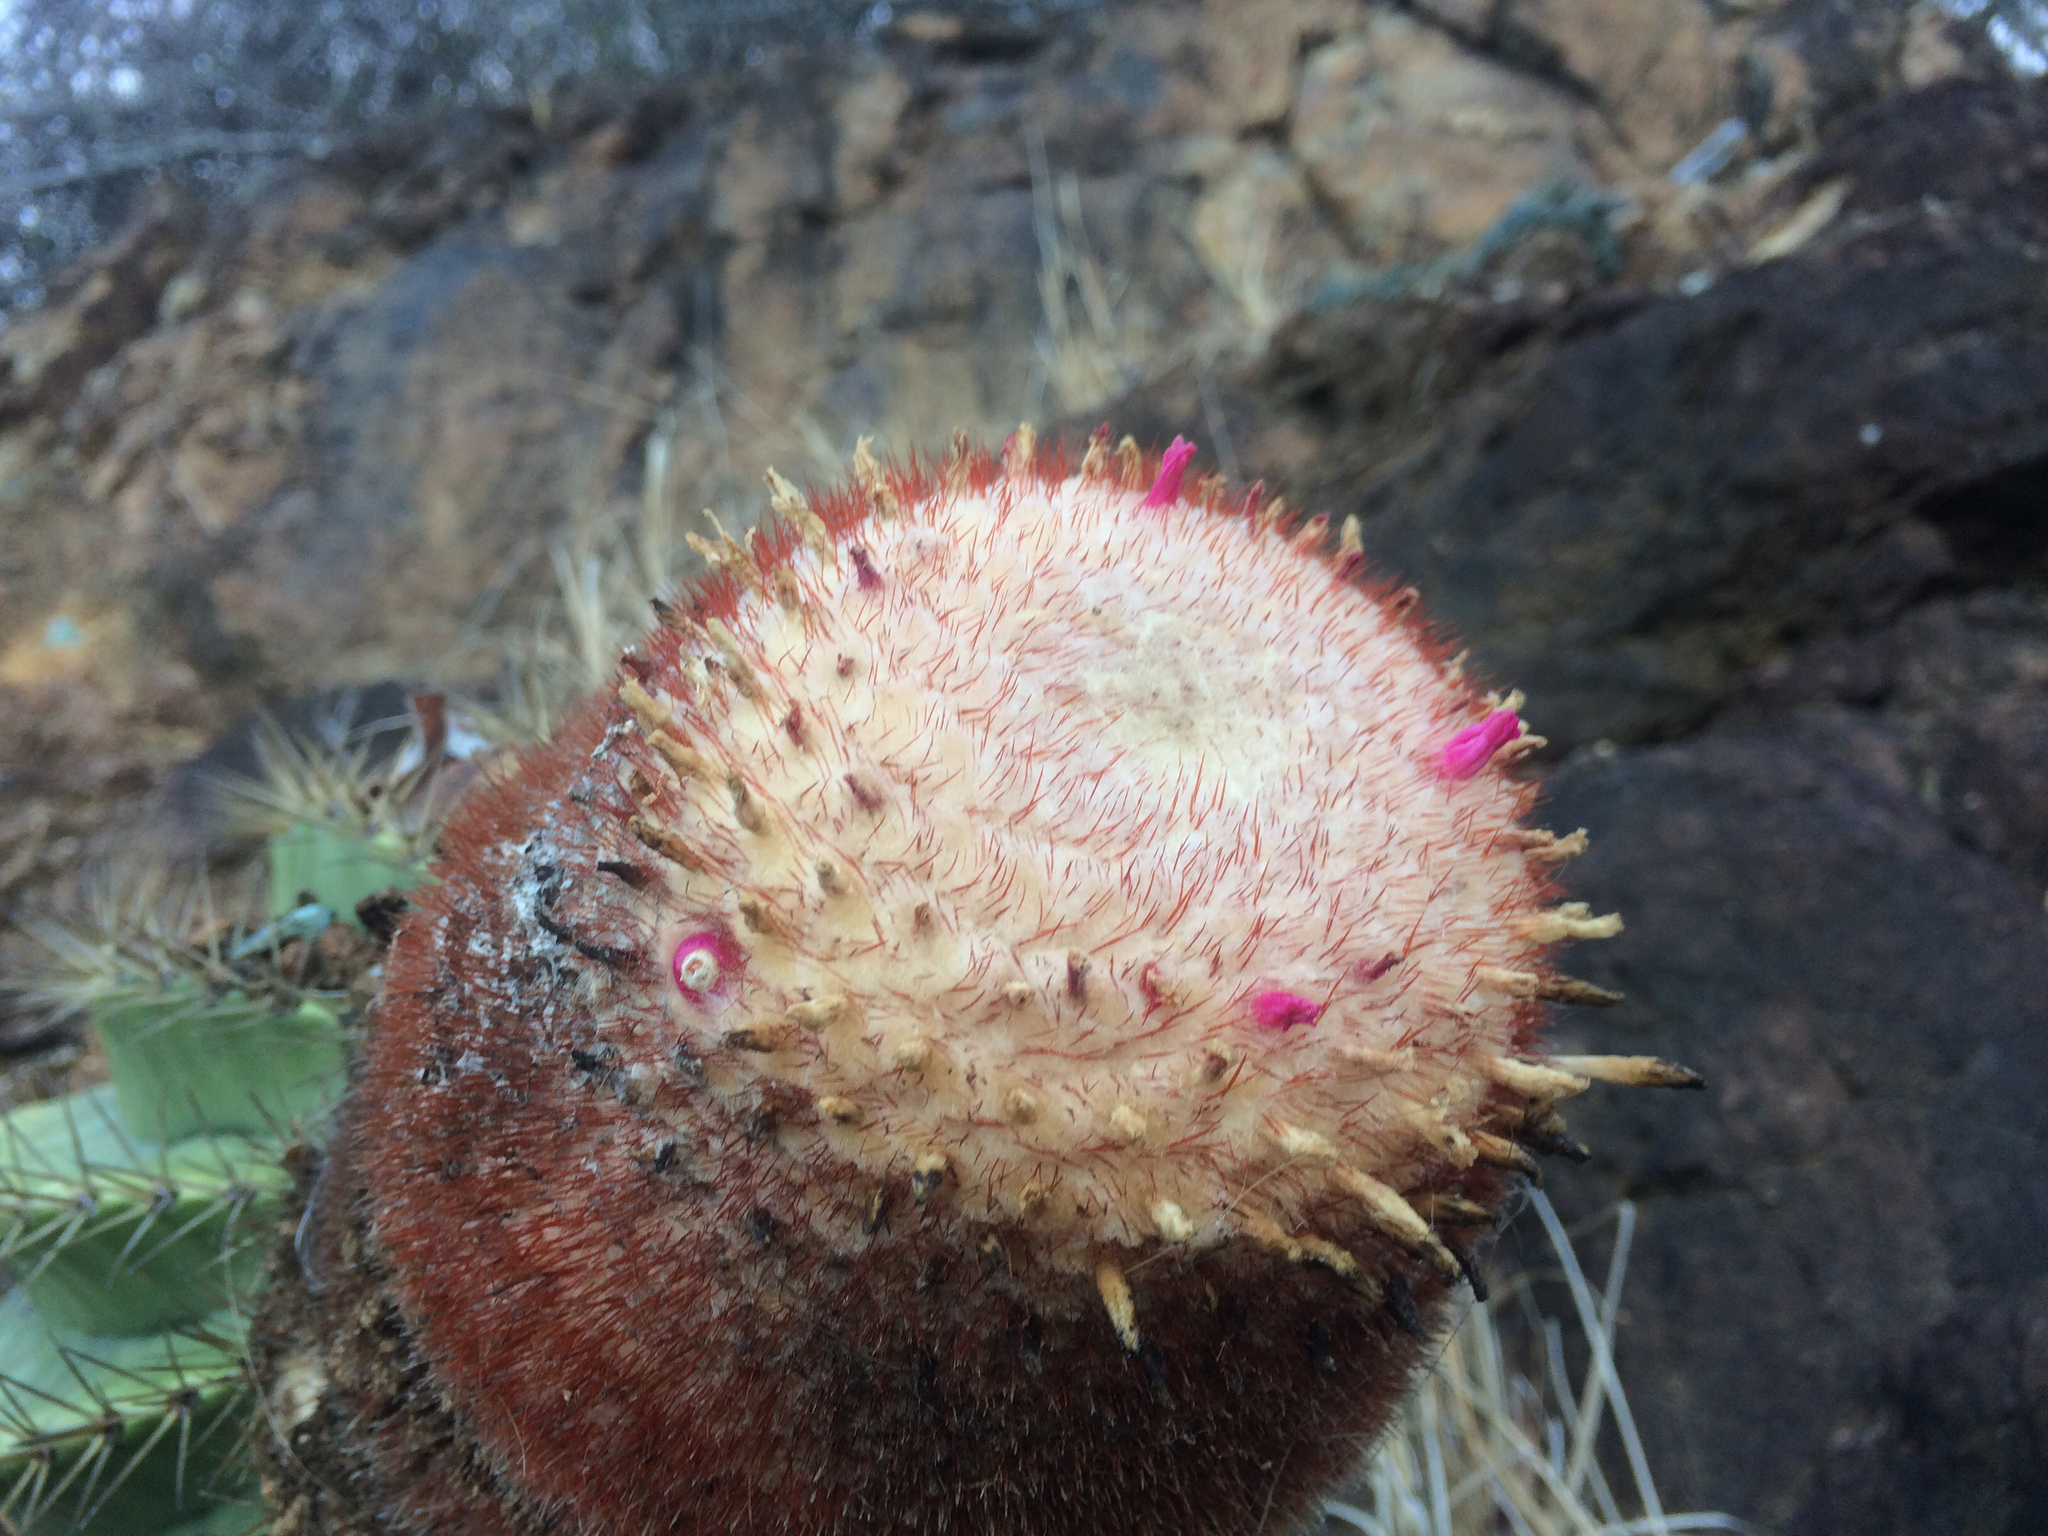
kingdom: Plantae
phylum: Tracheophyta
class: Magnoliopsida
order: Caryophyllales
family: Cactaceae
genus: Melocactus
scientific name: Melocactus intortus
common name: Barrel cactus
